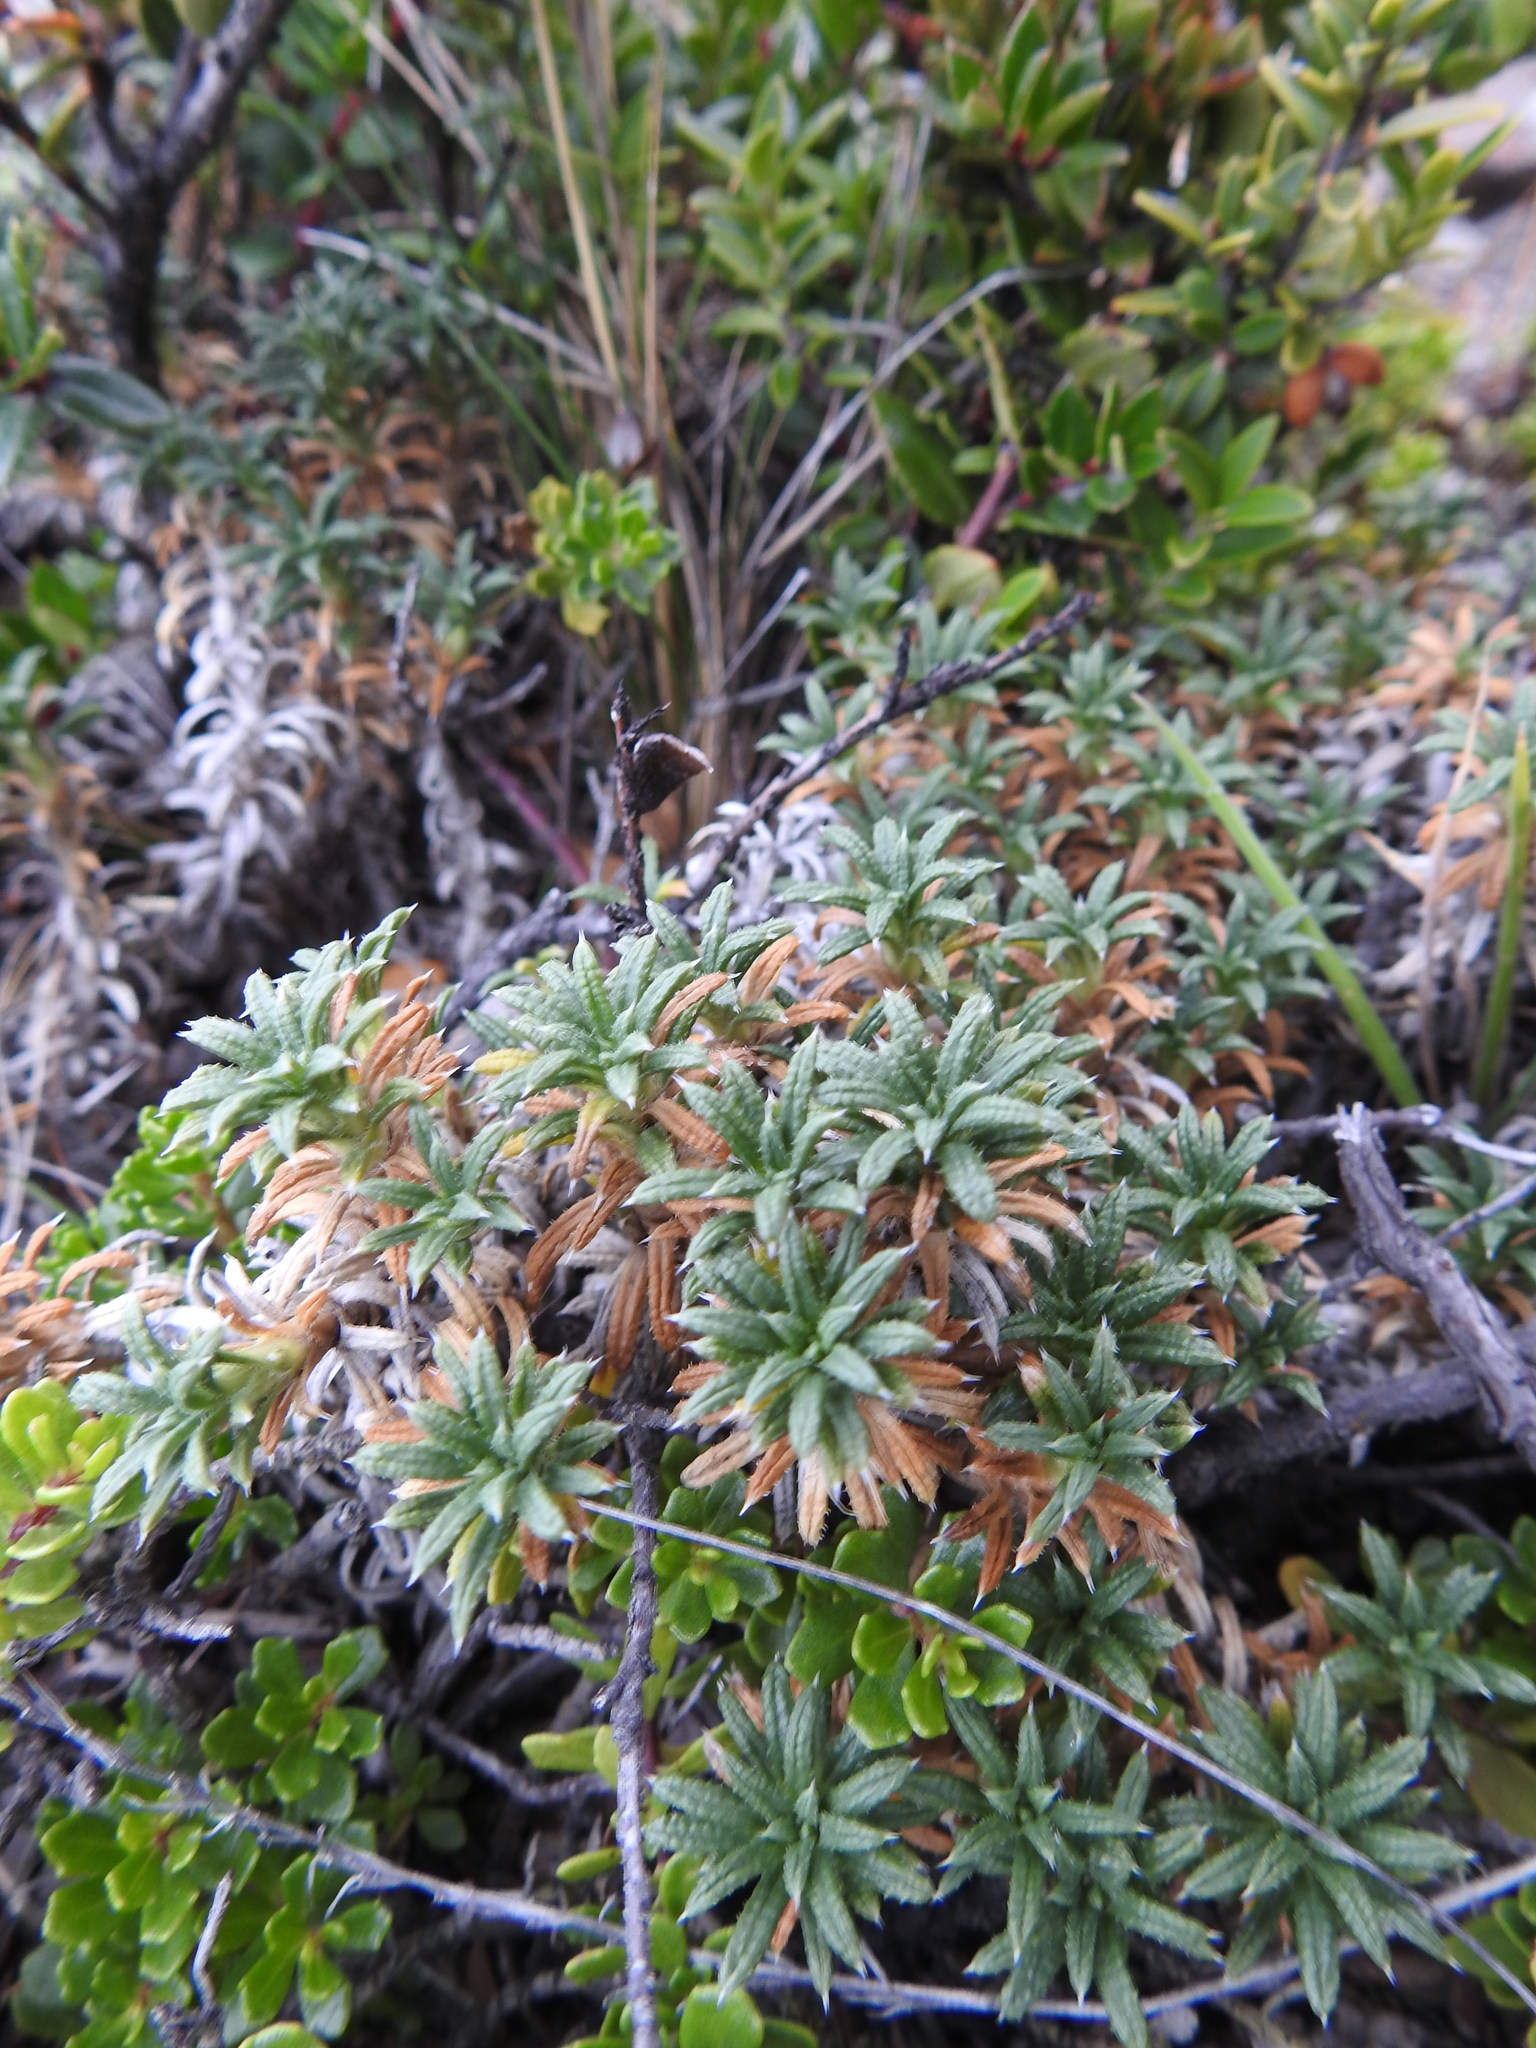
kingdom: Plantae
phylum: Tracheophyta
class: Magnoliopsida
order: Asterales
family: Asteraceae
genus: Perezia
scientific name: Perezia recurvata
